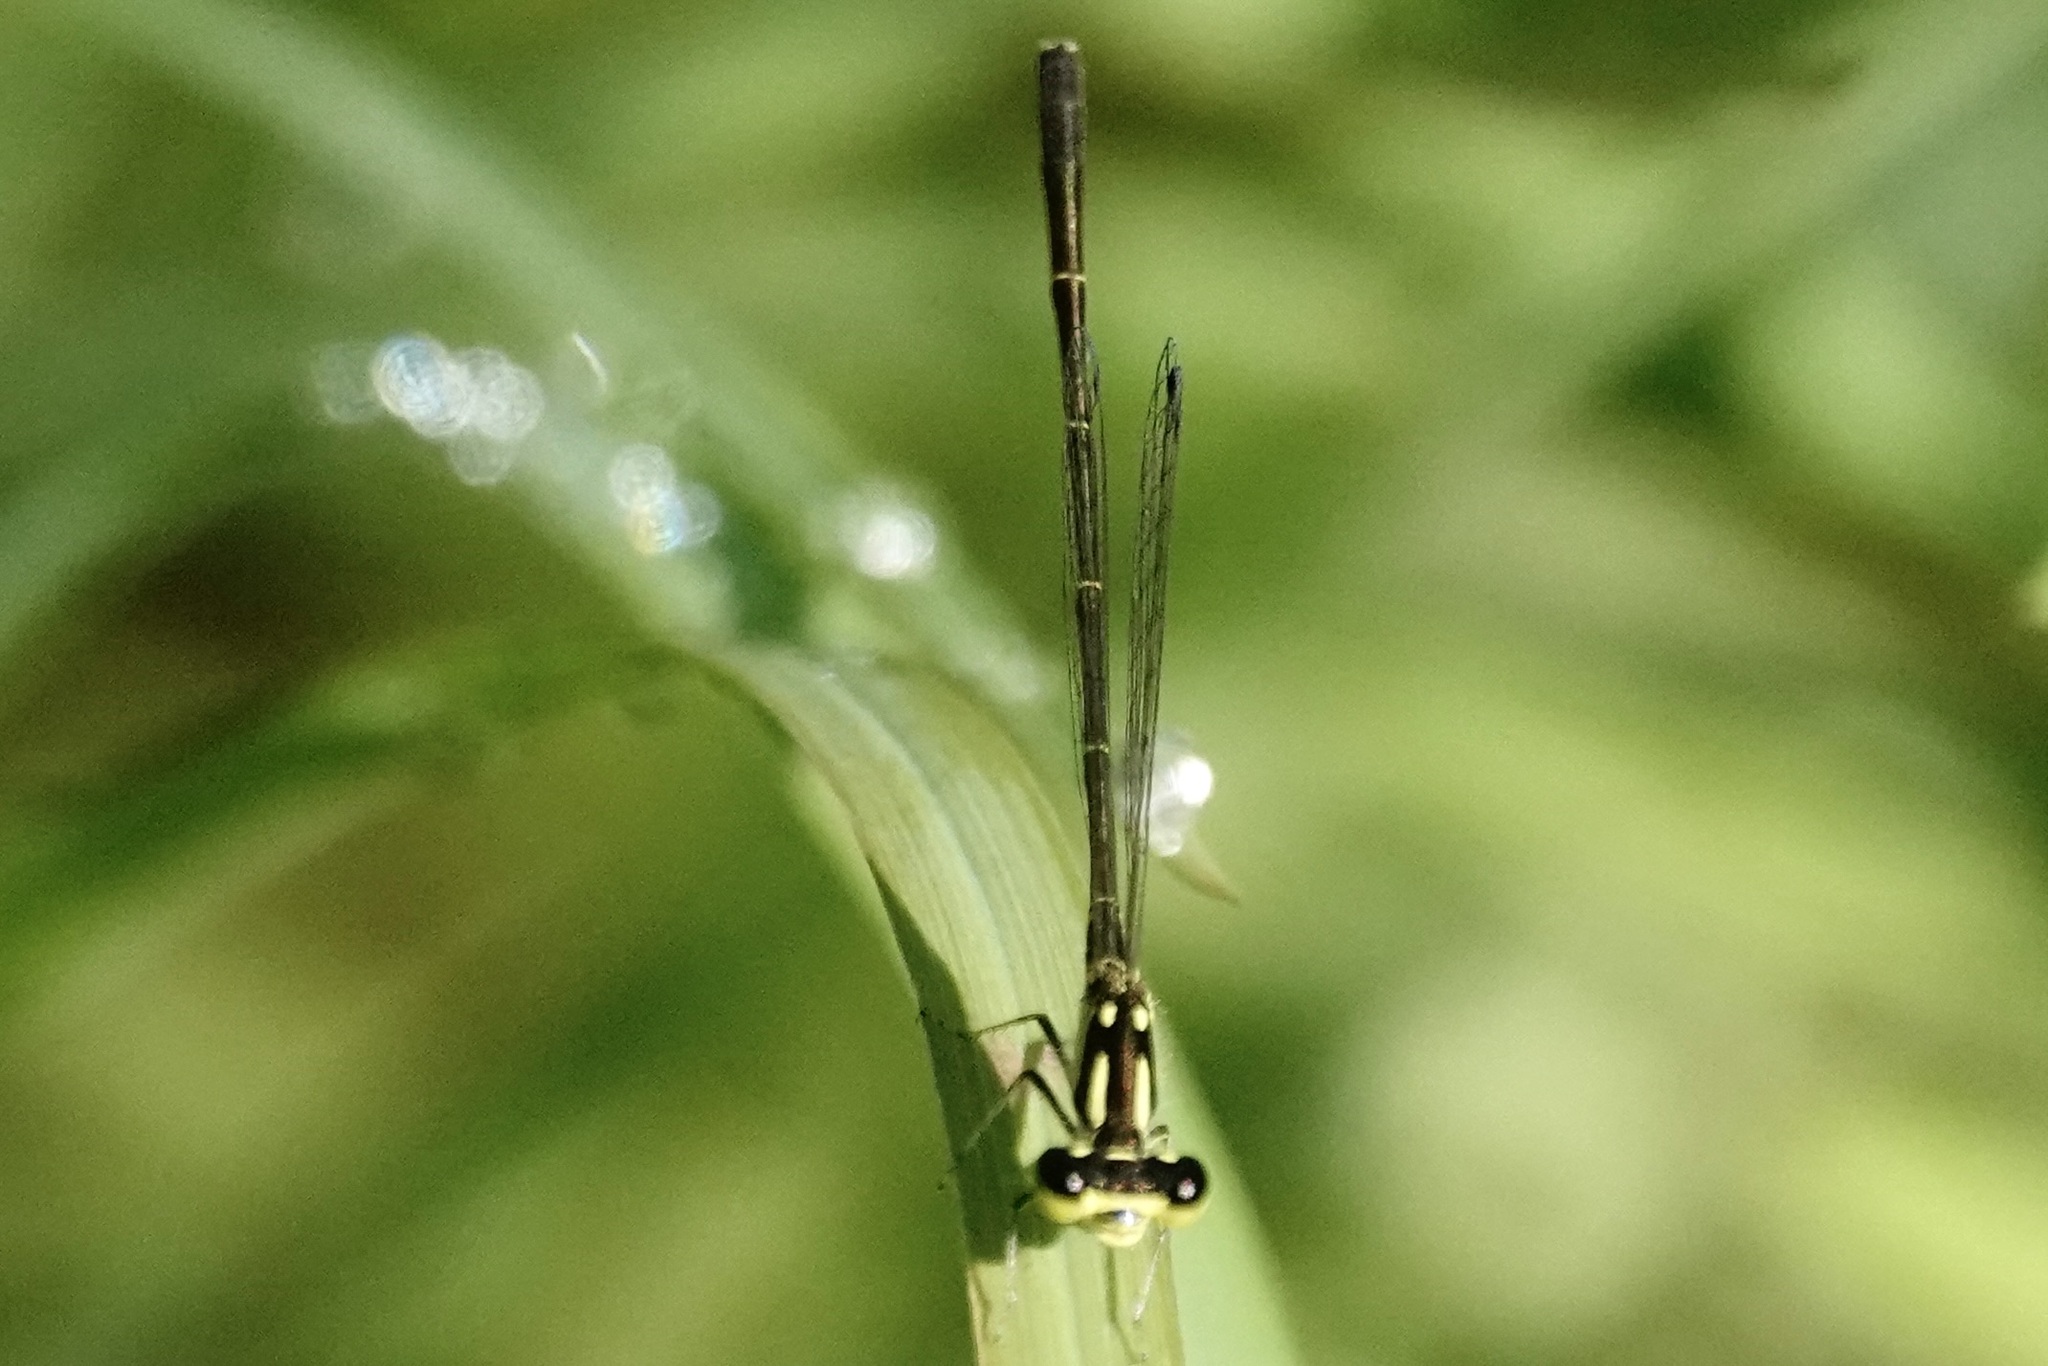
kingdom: Animalia
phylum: Arthropoda
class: Insecta
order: Odonata
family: Coenagrionidae
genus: Ischnura
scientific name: Ischnura posita
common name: Fragile forktail
